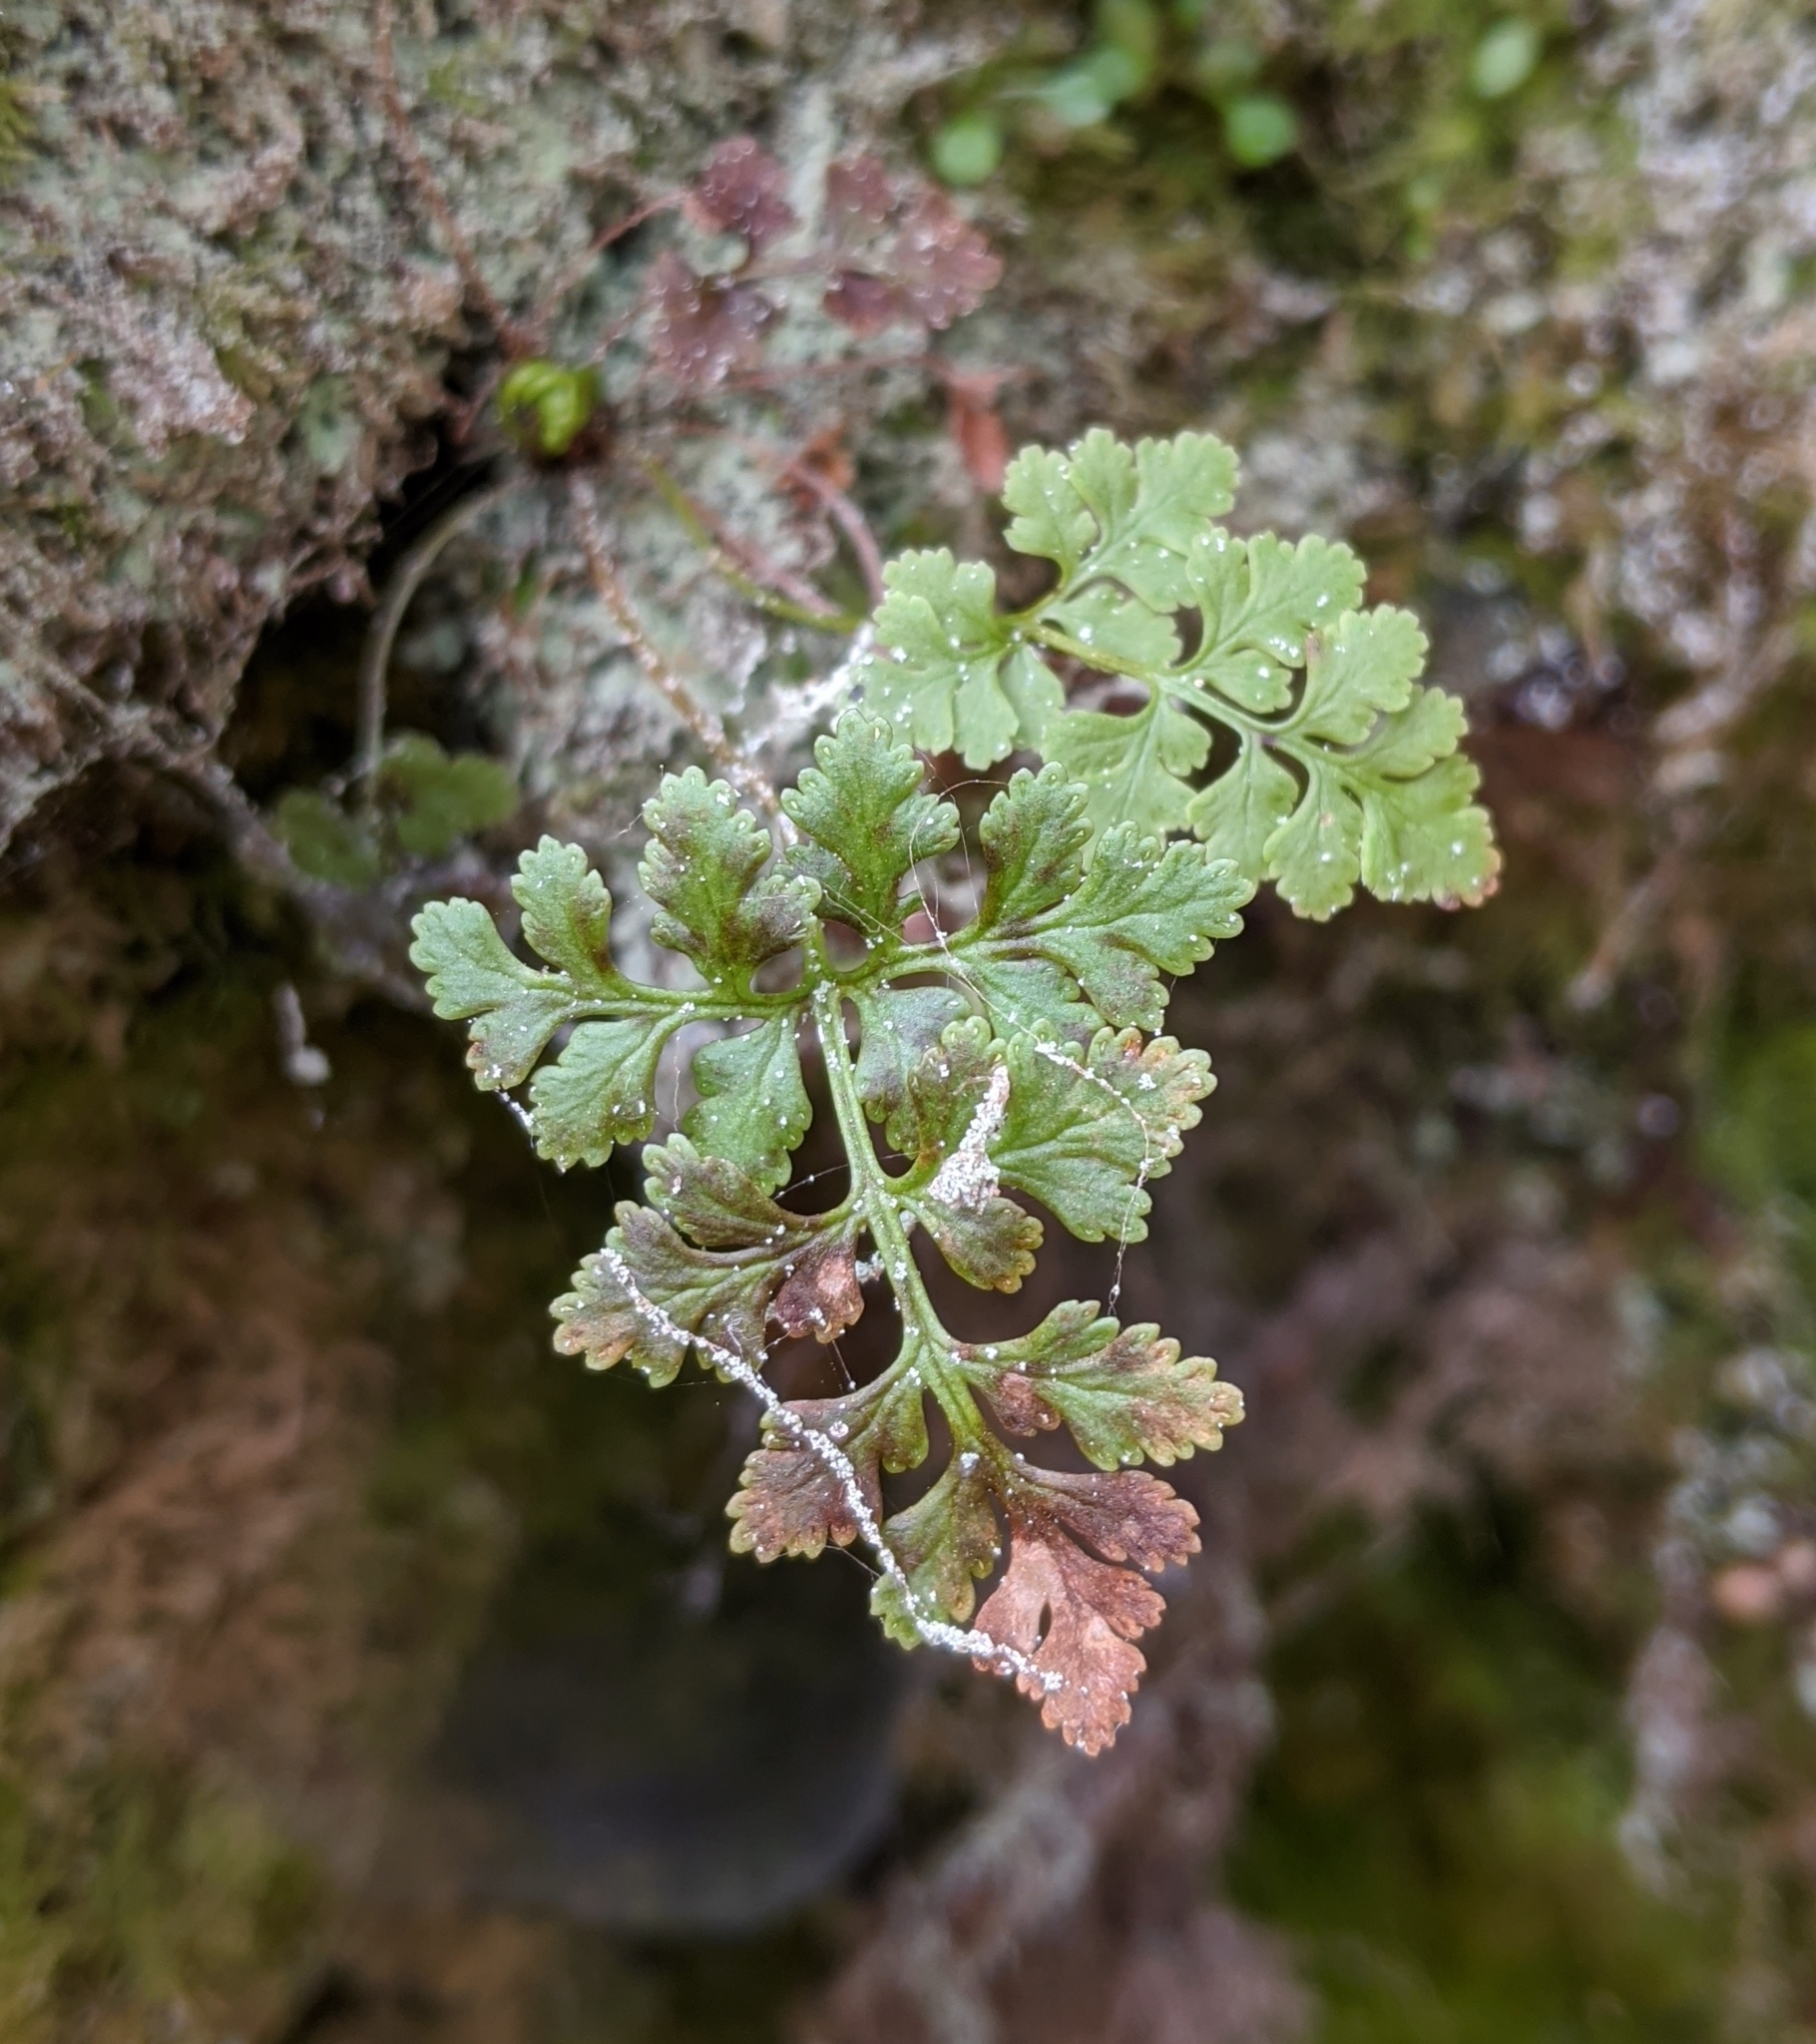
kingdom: Plantae
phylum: Tracheophyta
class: Polypodiopsida
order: Polypodiales
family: Pteridaceae
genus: Cryptogramma
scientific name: Cryptogramma acrostichoides
